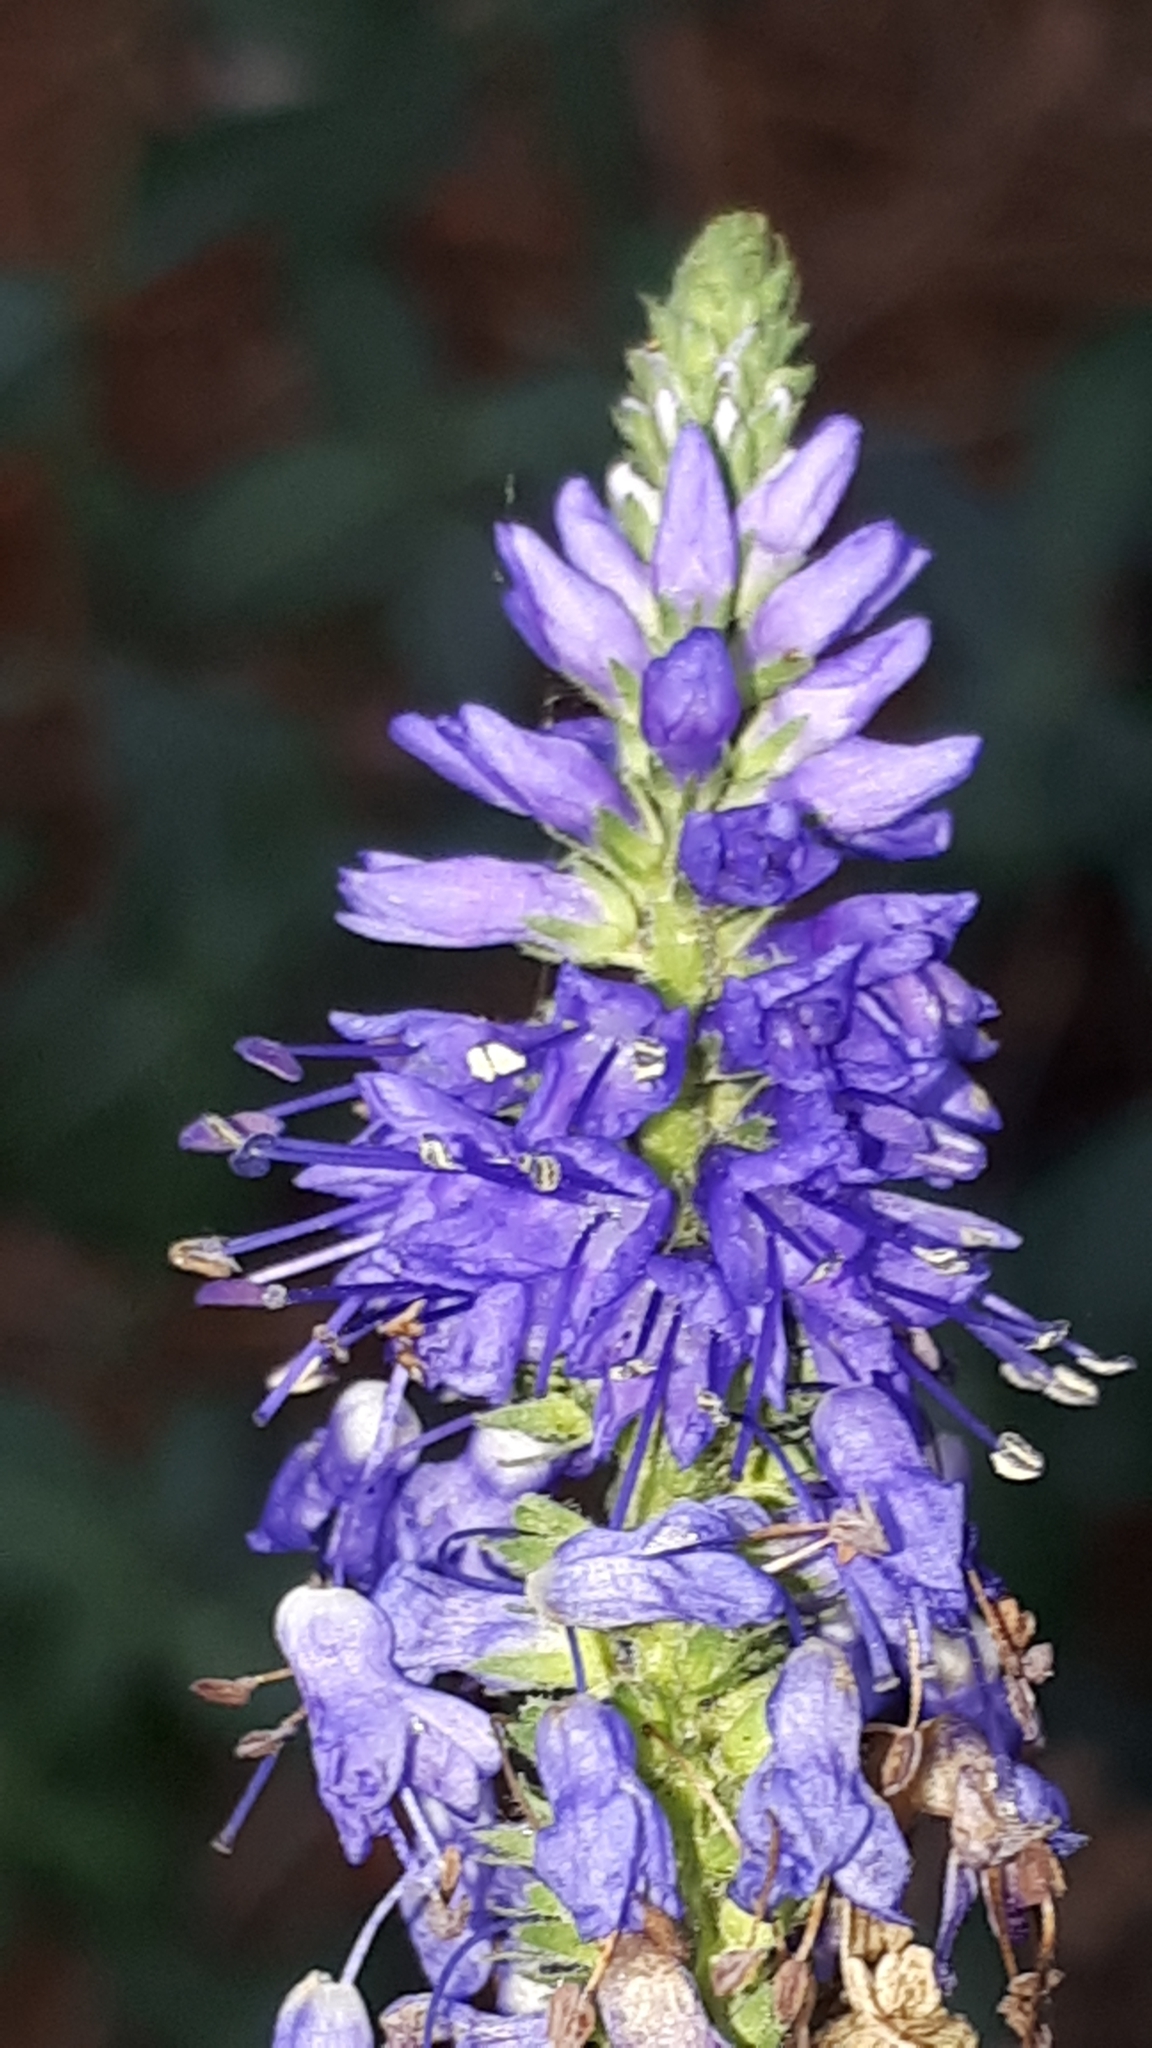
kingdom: Plantae
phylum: Tracheophyta
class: Magnoliopsida
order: Lamiales
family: Plantaginaceae
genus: Veronica
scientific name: Veronica longifolia
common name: Garden speedwell
